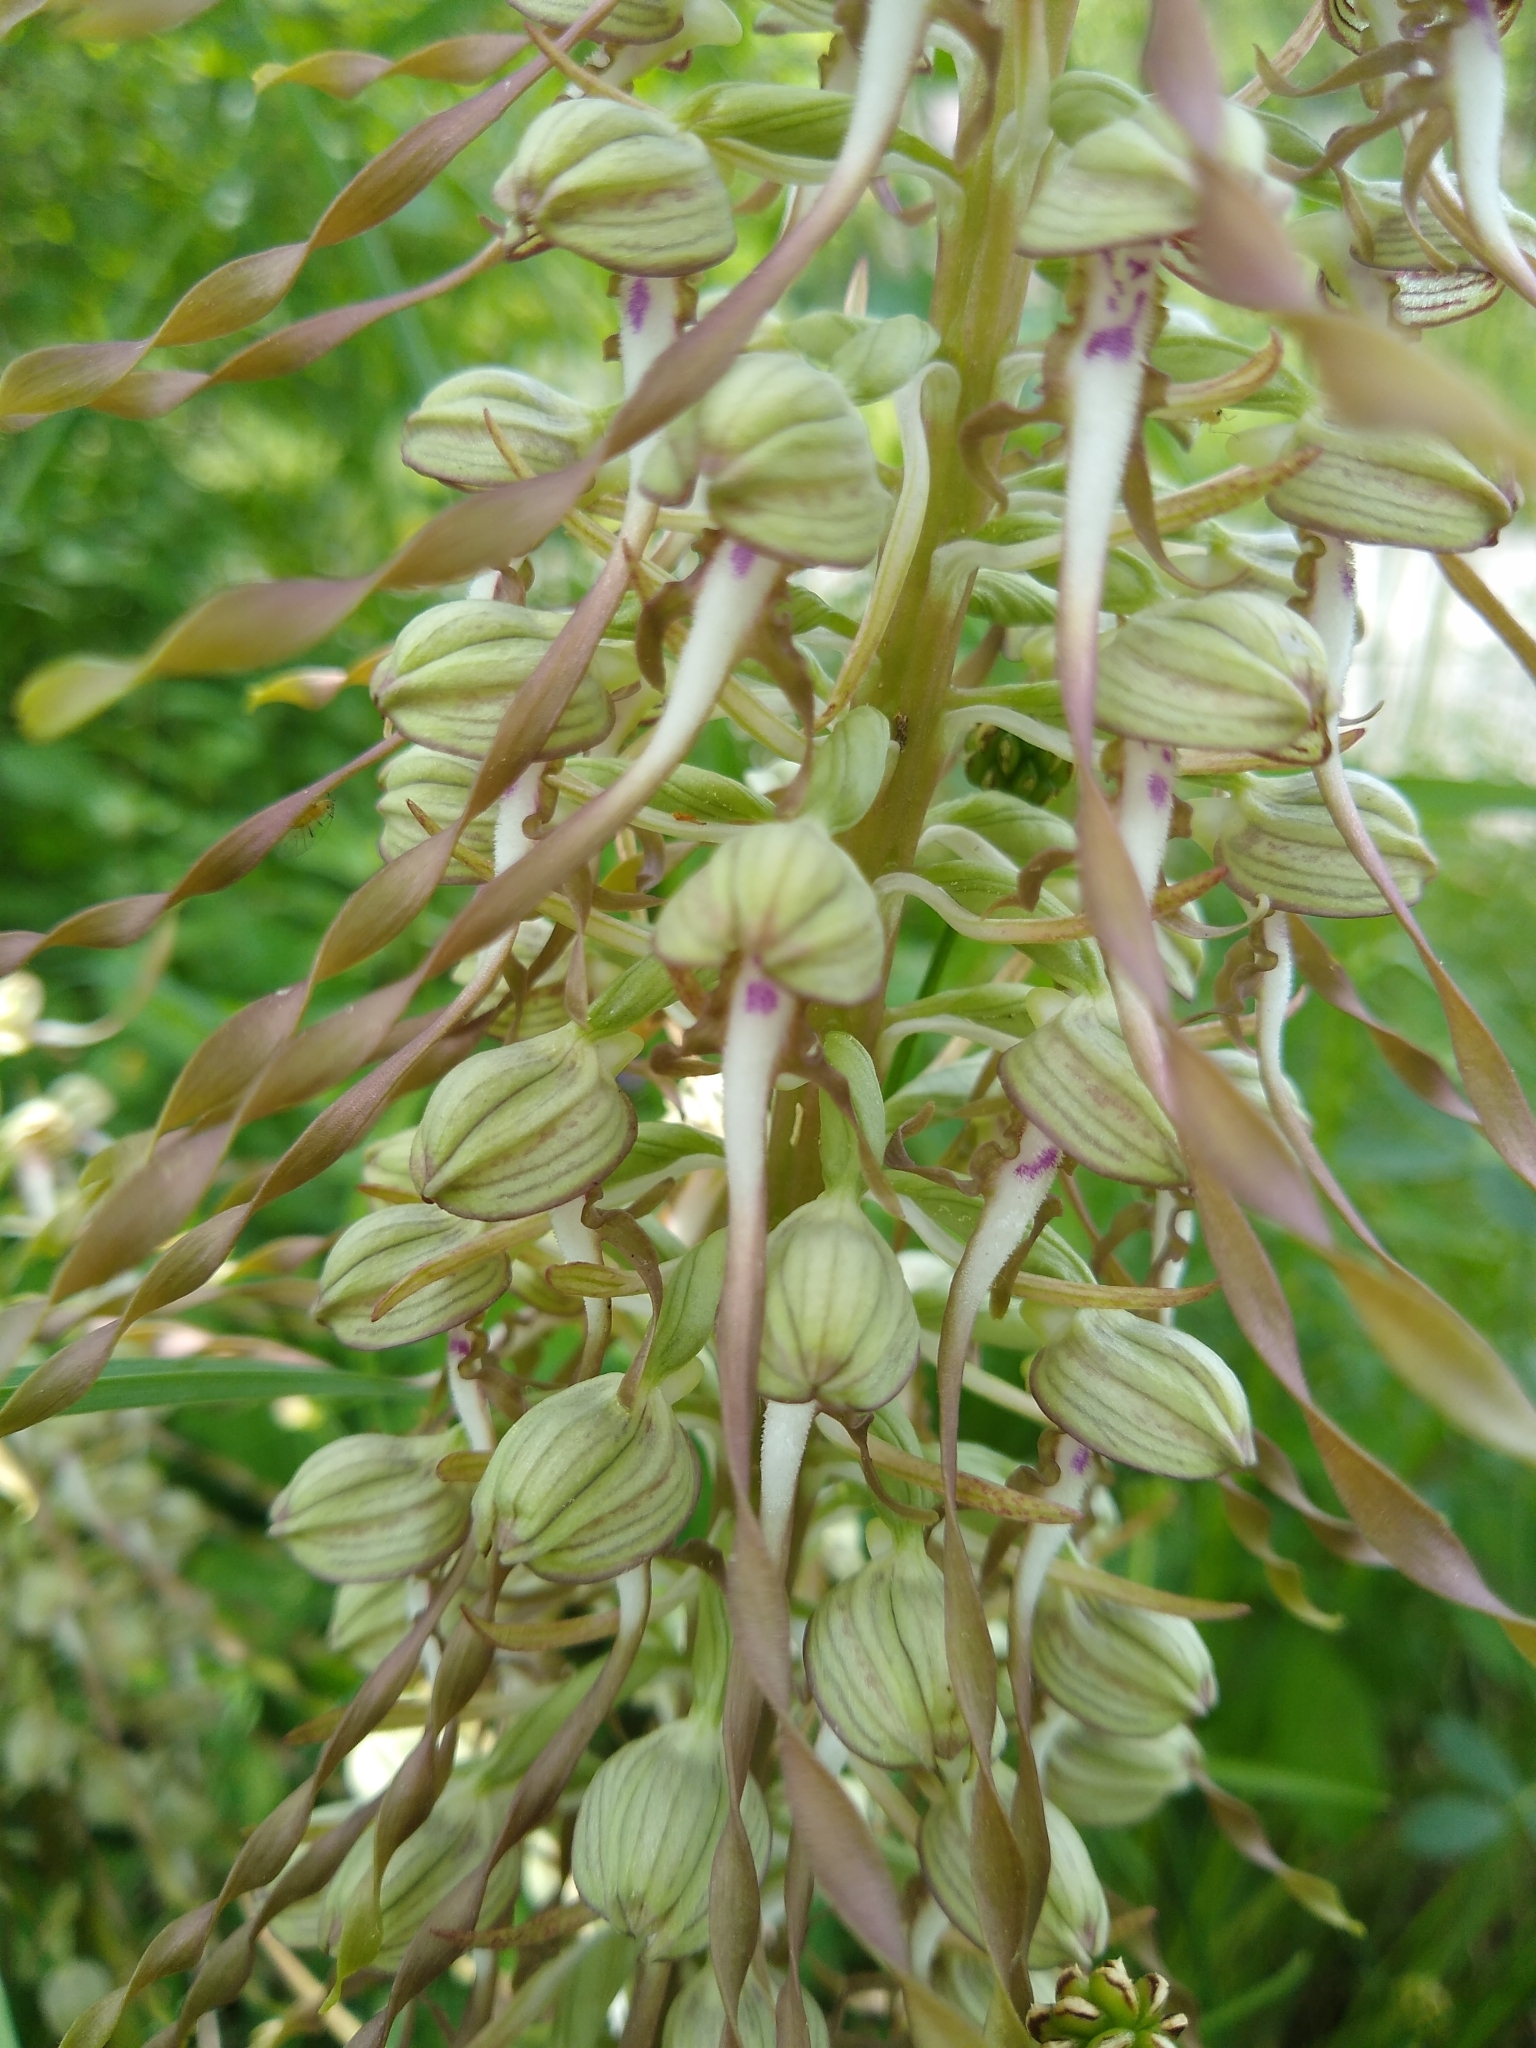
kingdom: Plantae
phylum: Tracheophyta
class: Liliopsida
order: Asparagales
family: Orchidaceae
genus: Himantoglossum
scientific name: Himantoglossum hircinum
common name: Lizard orchid
